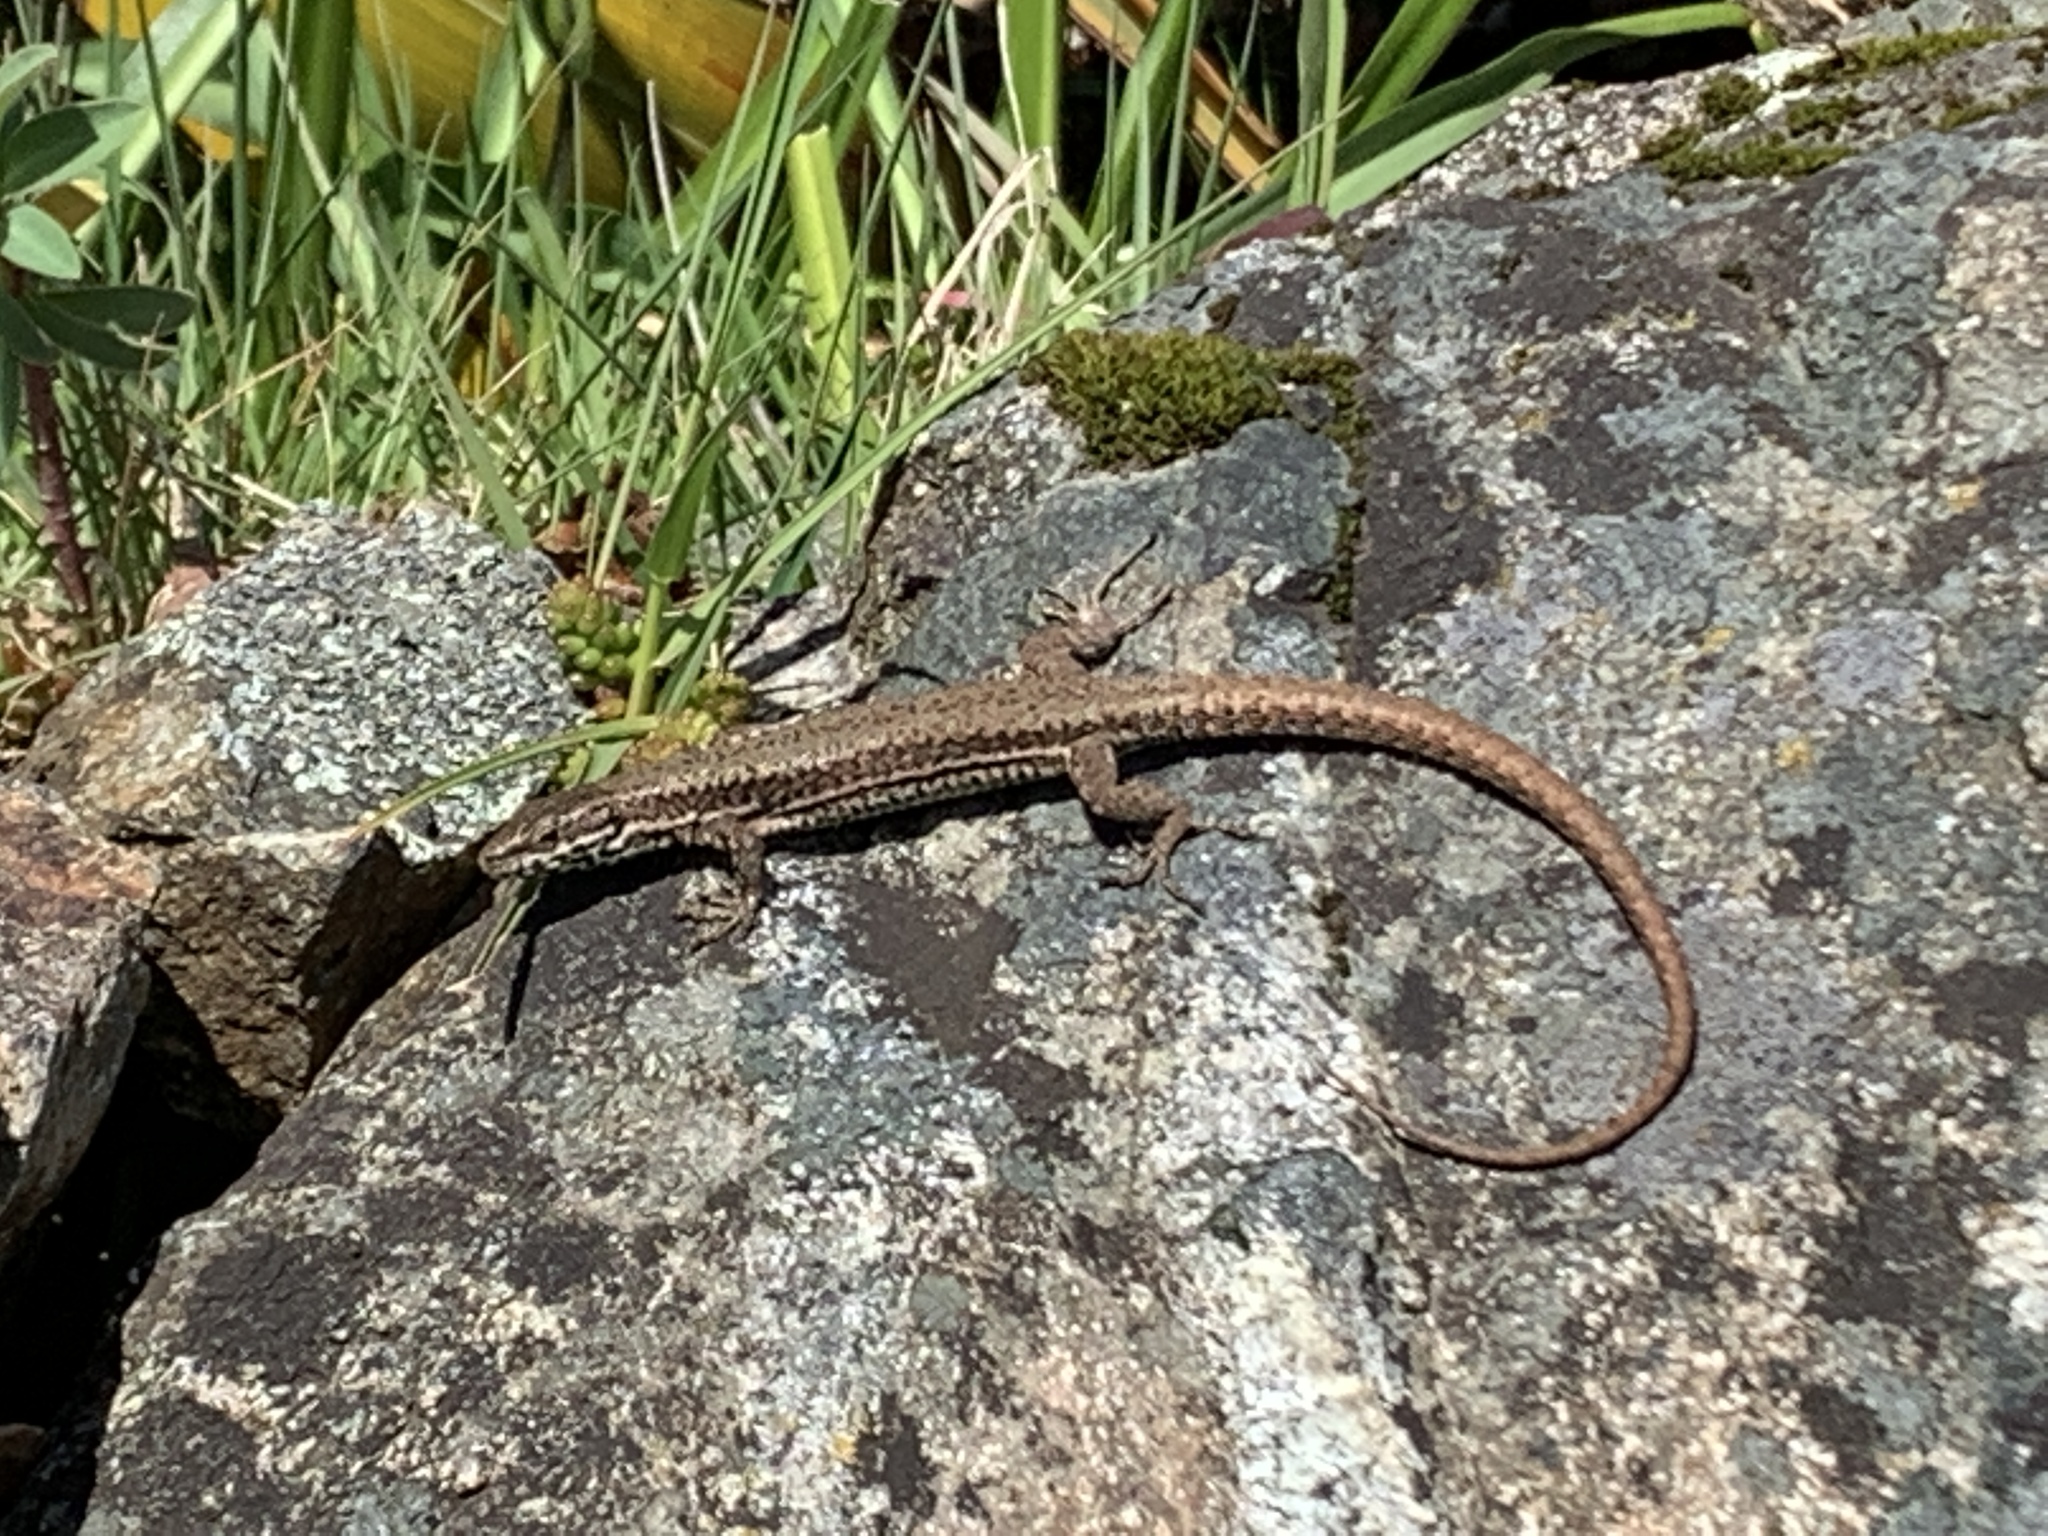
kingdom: Animalia
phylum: Chordata
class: Squamata
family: Lacertidae
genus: Podarcis
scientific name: Podarcis muralis
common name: Common wall lizard
